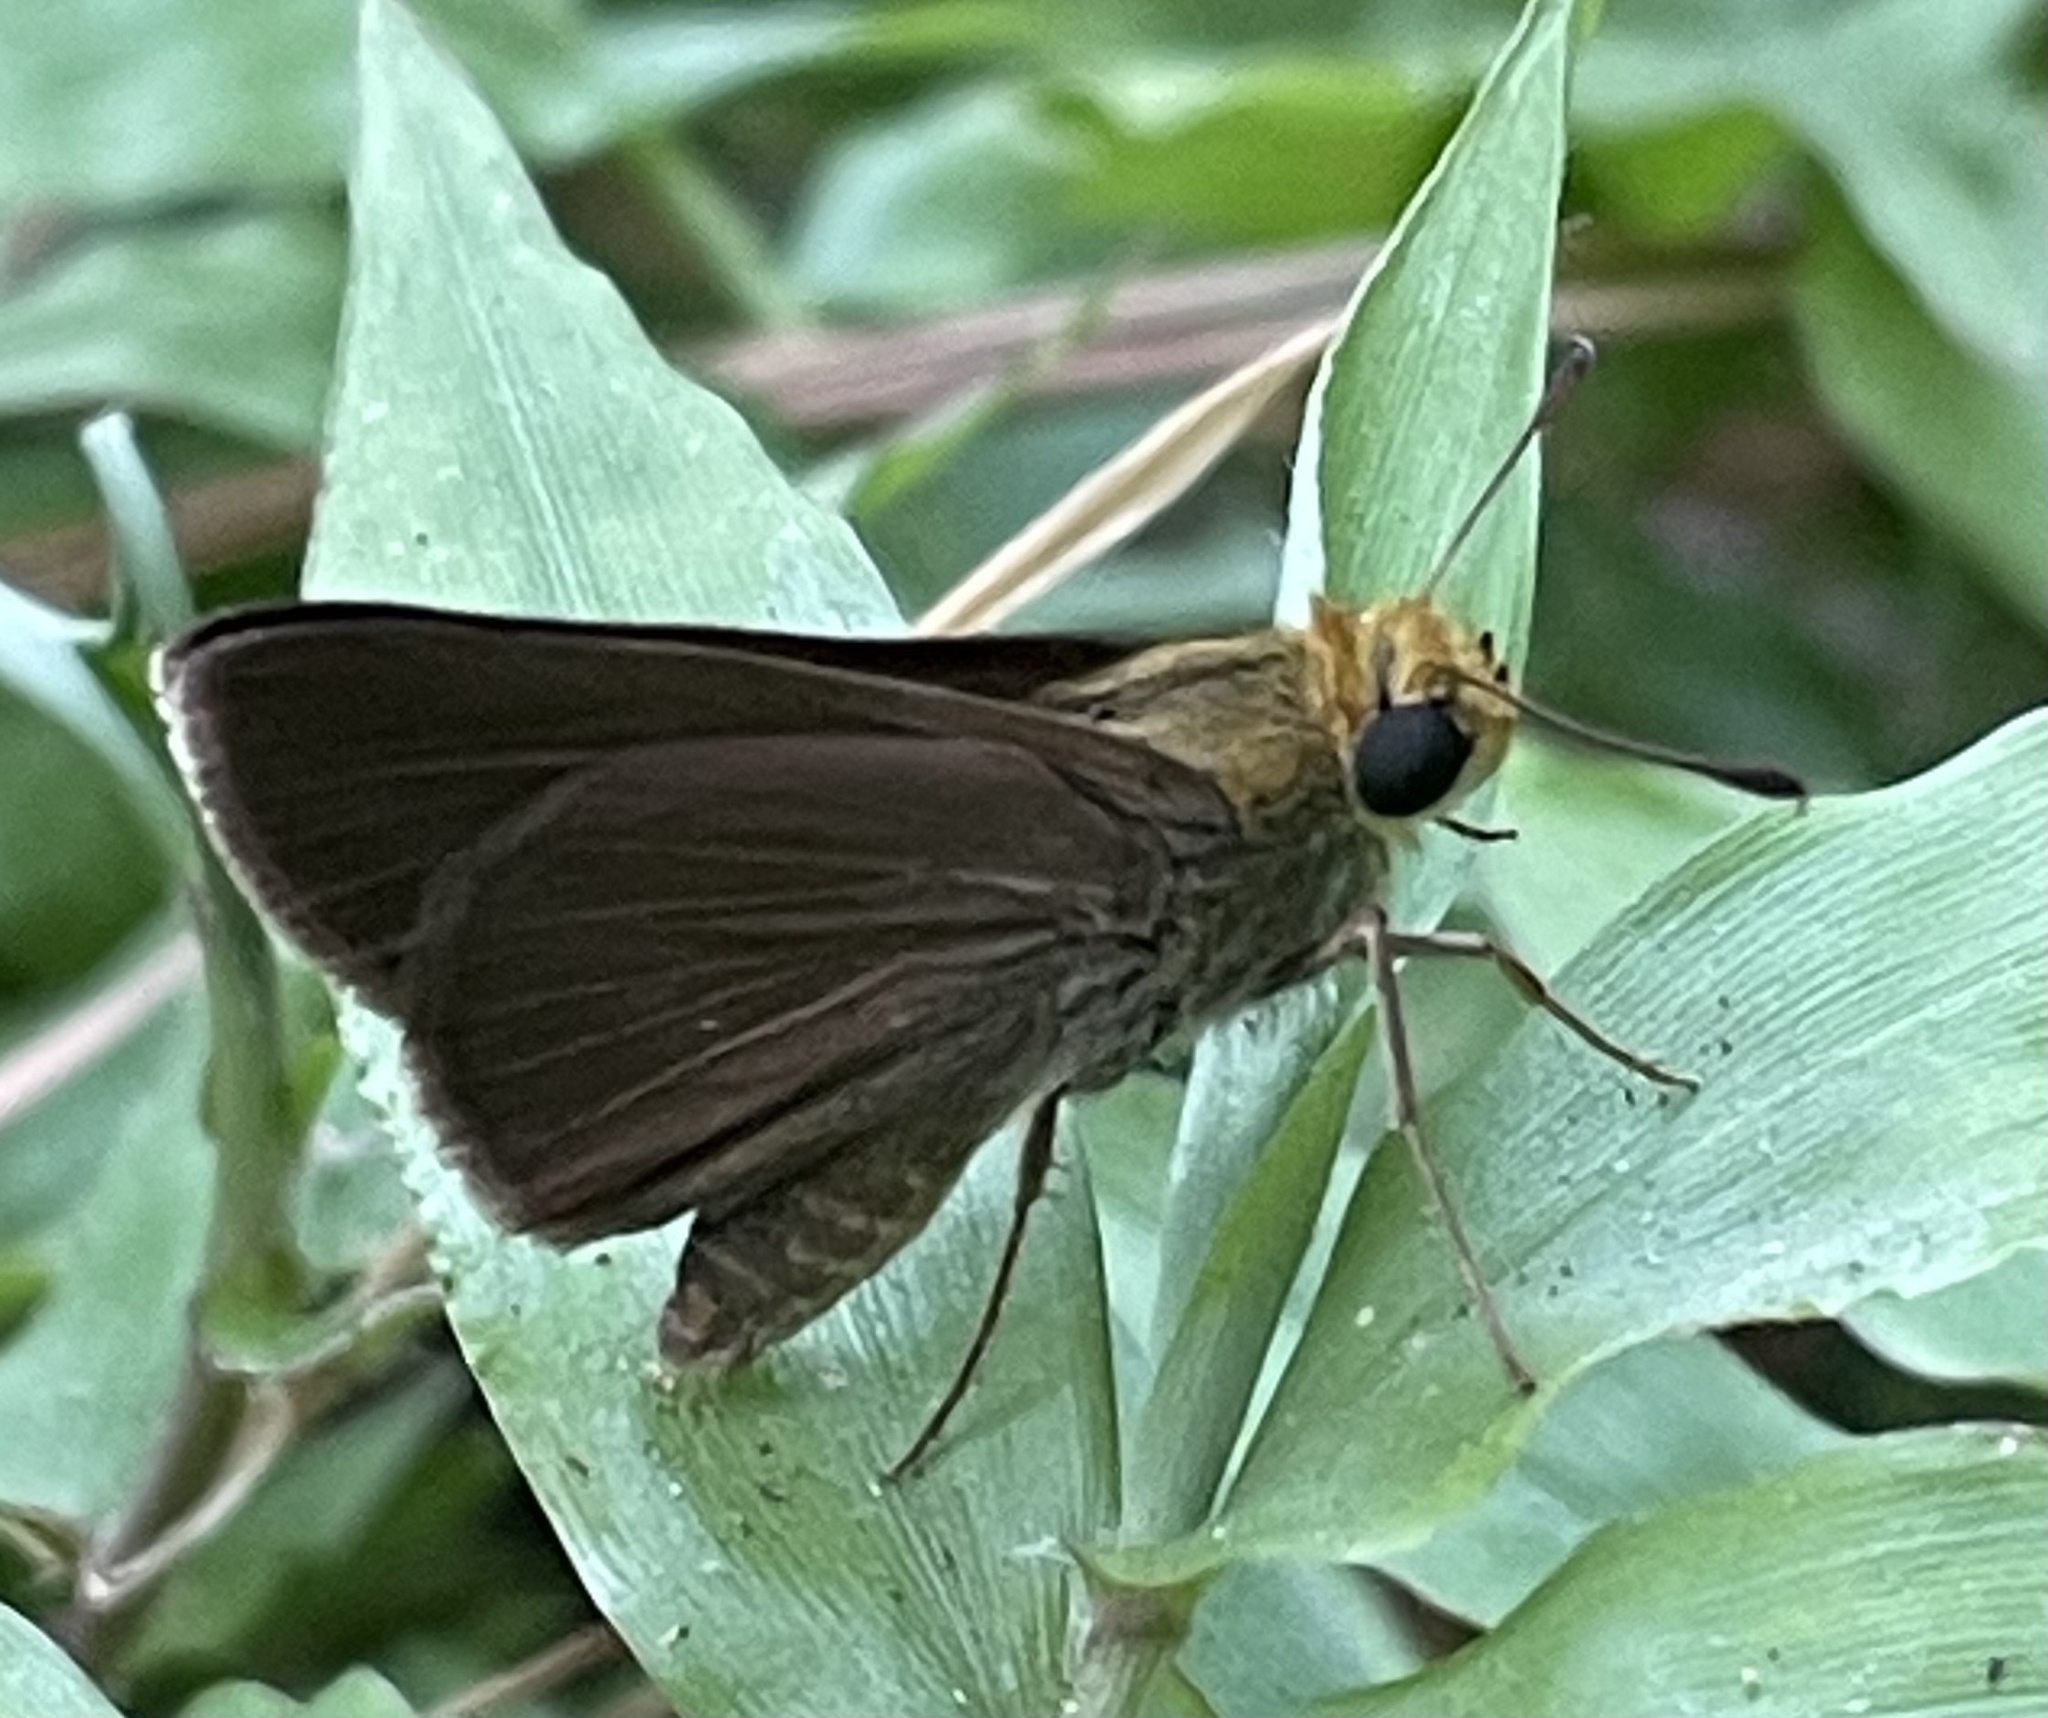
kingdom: Animalia
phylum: Arthropoda
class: Insecta
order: Lepidoptera
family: Hesperiidae
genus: Euphyes
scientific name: Euphyes vestris
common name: Dun skipper
